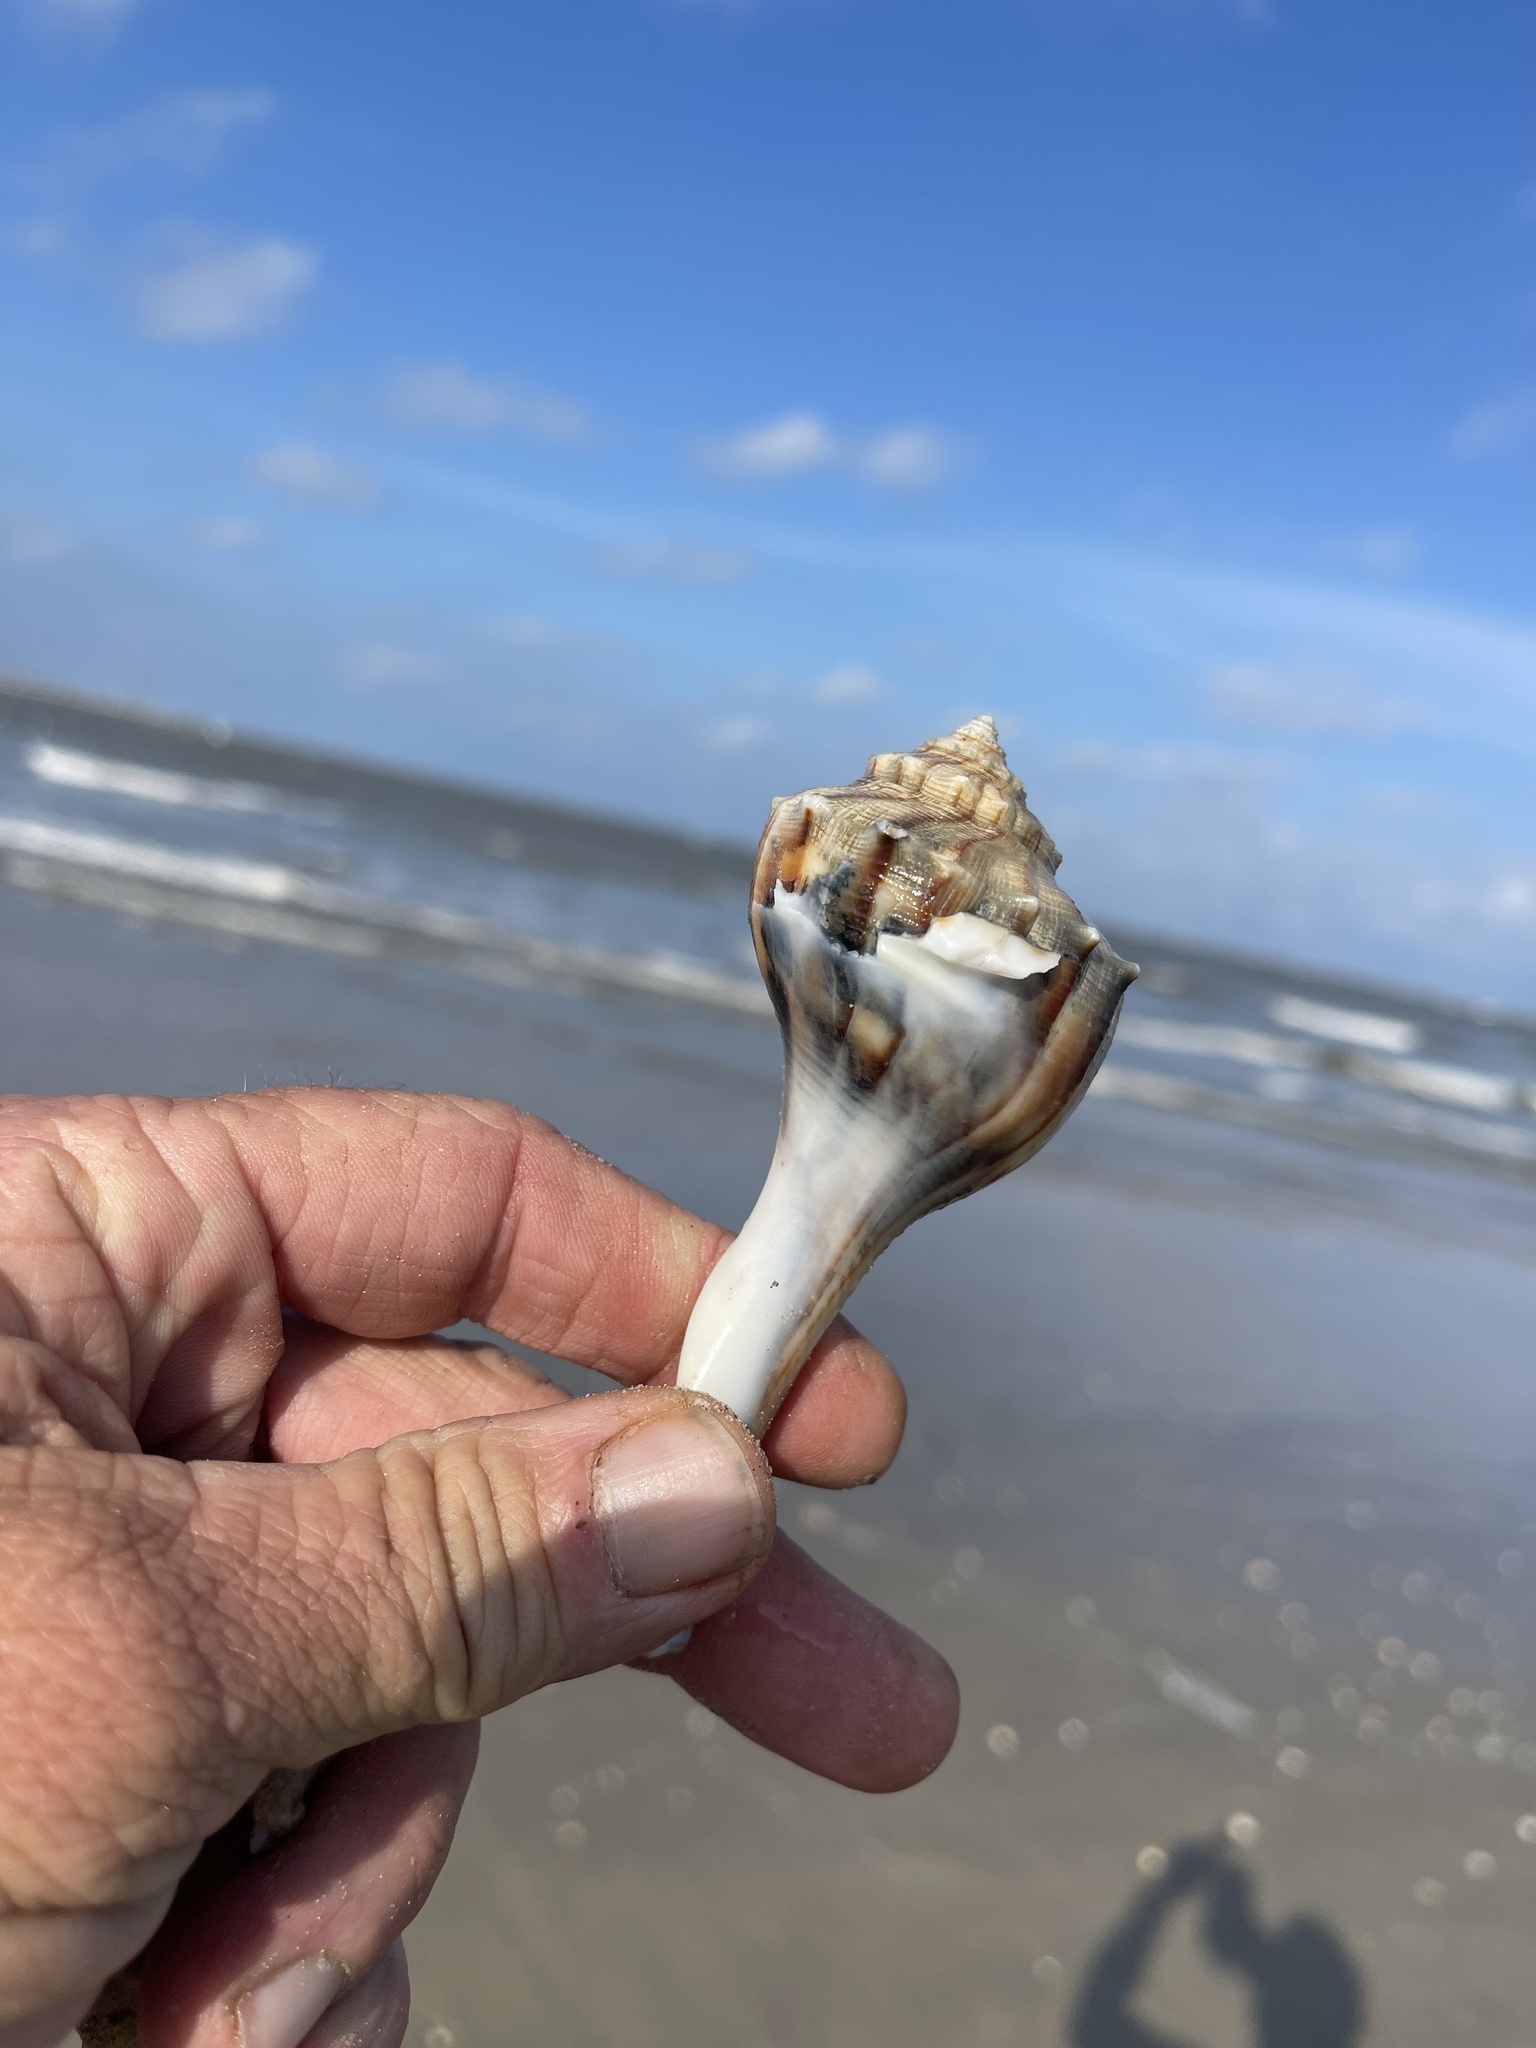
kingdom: Animalia
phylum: Mollusca
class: Gastropoda
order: Neogastropoda
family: Busyconidae
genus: Sinistrofulgur
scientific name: Sinistrofulgur pulleyi
